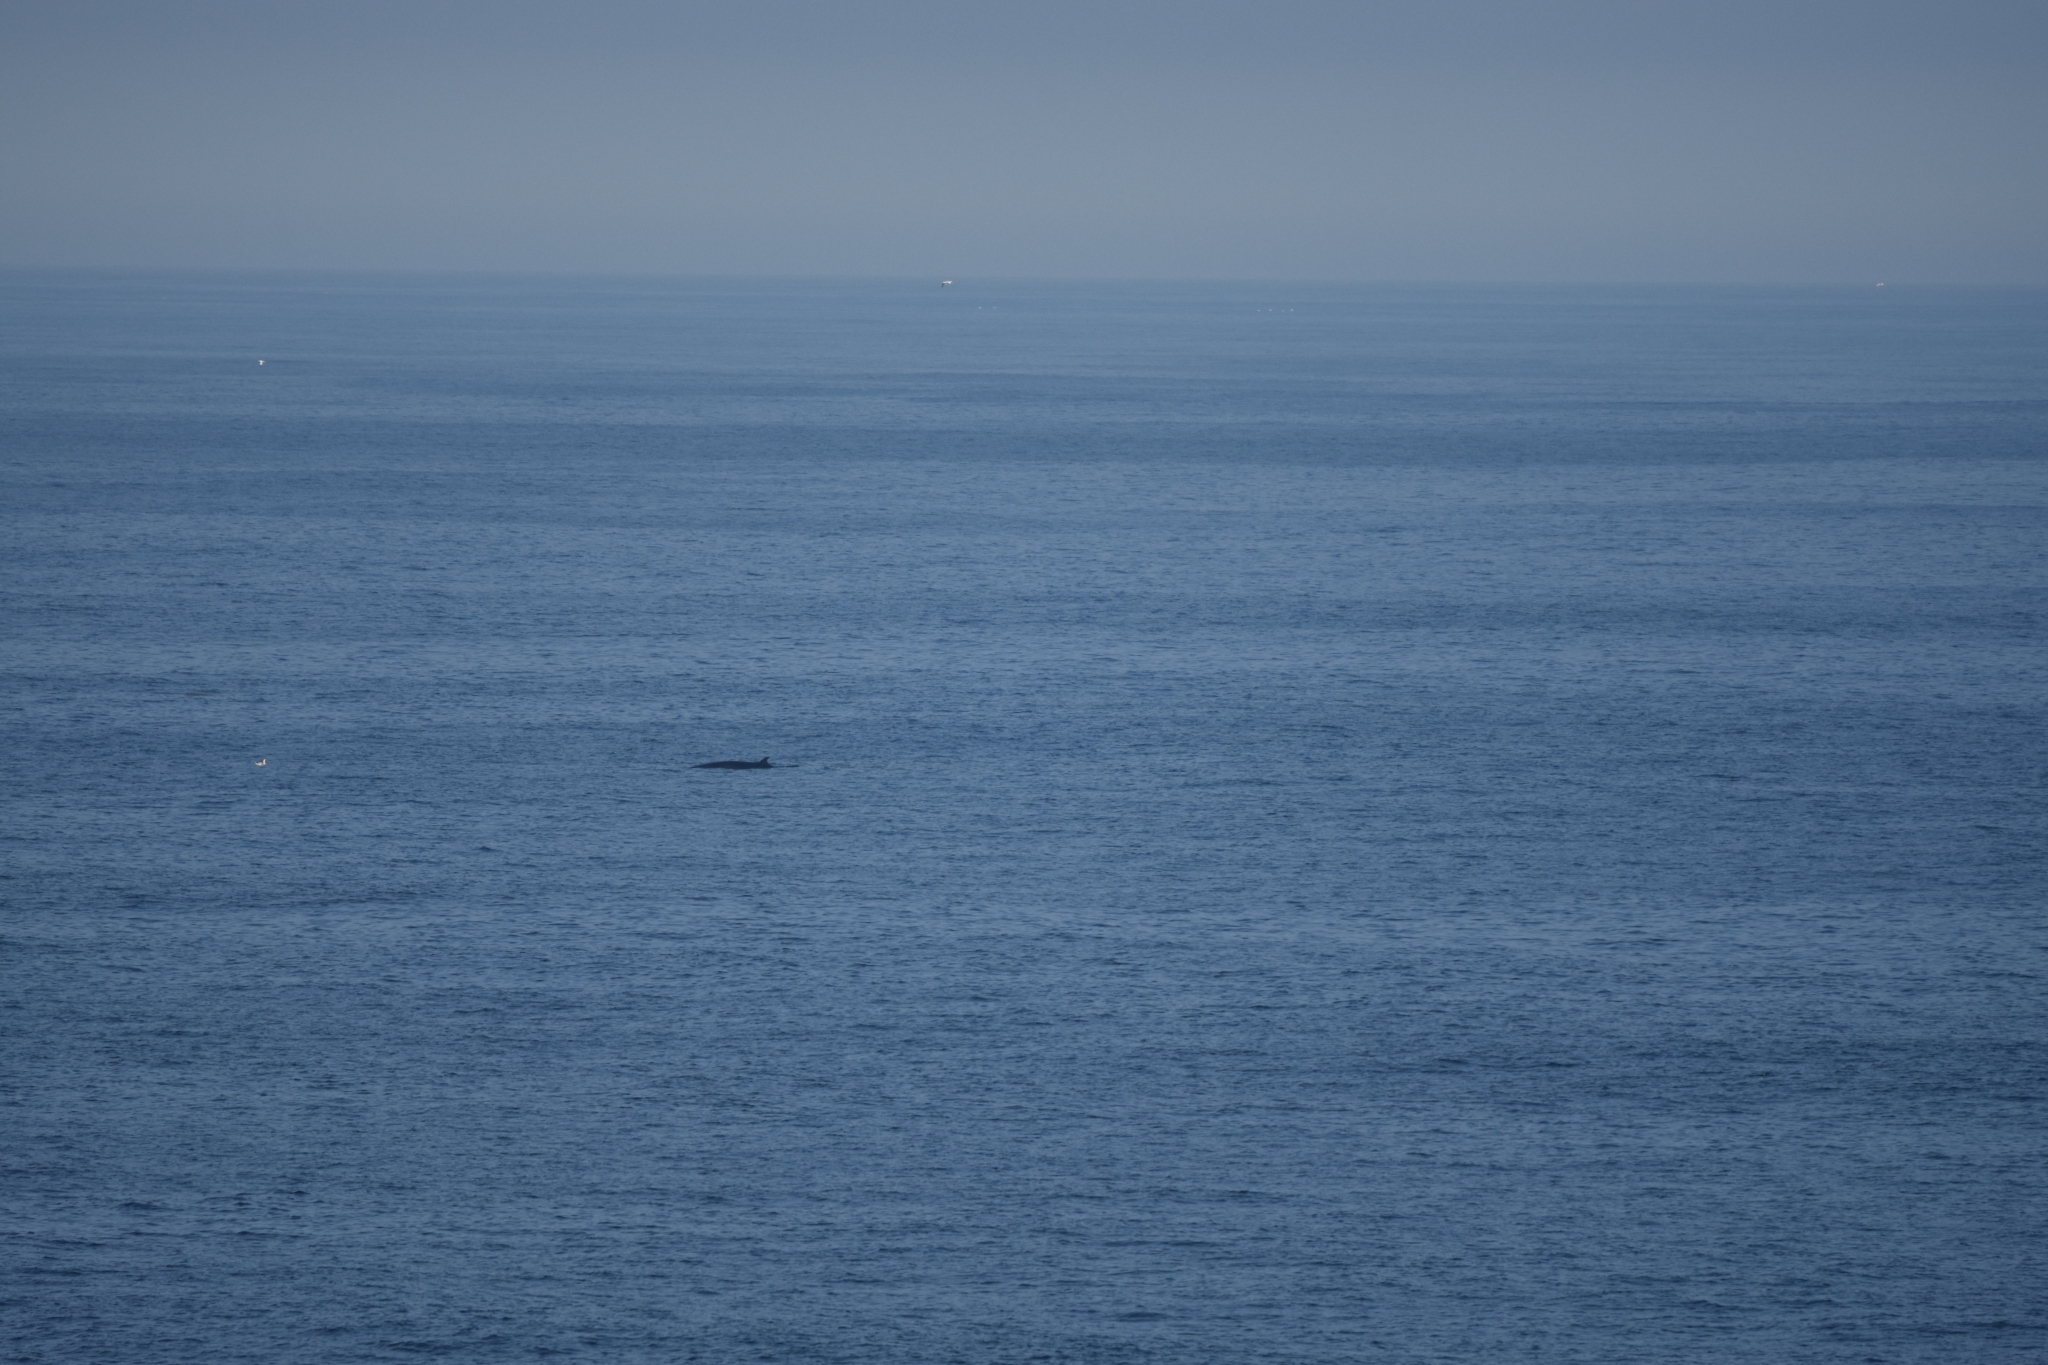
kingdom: Animalia
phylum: Chordata
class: Mammalia
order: Cetacea
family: Balaenopteridae
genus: Balaenoptera
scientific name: Balaenoptera acutorostrata
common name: Common minke whale
